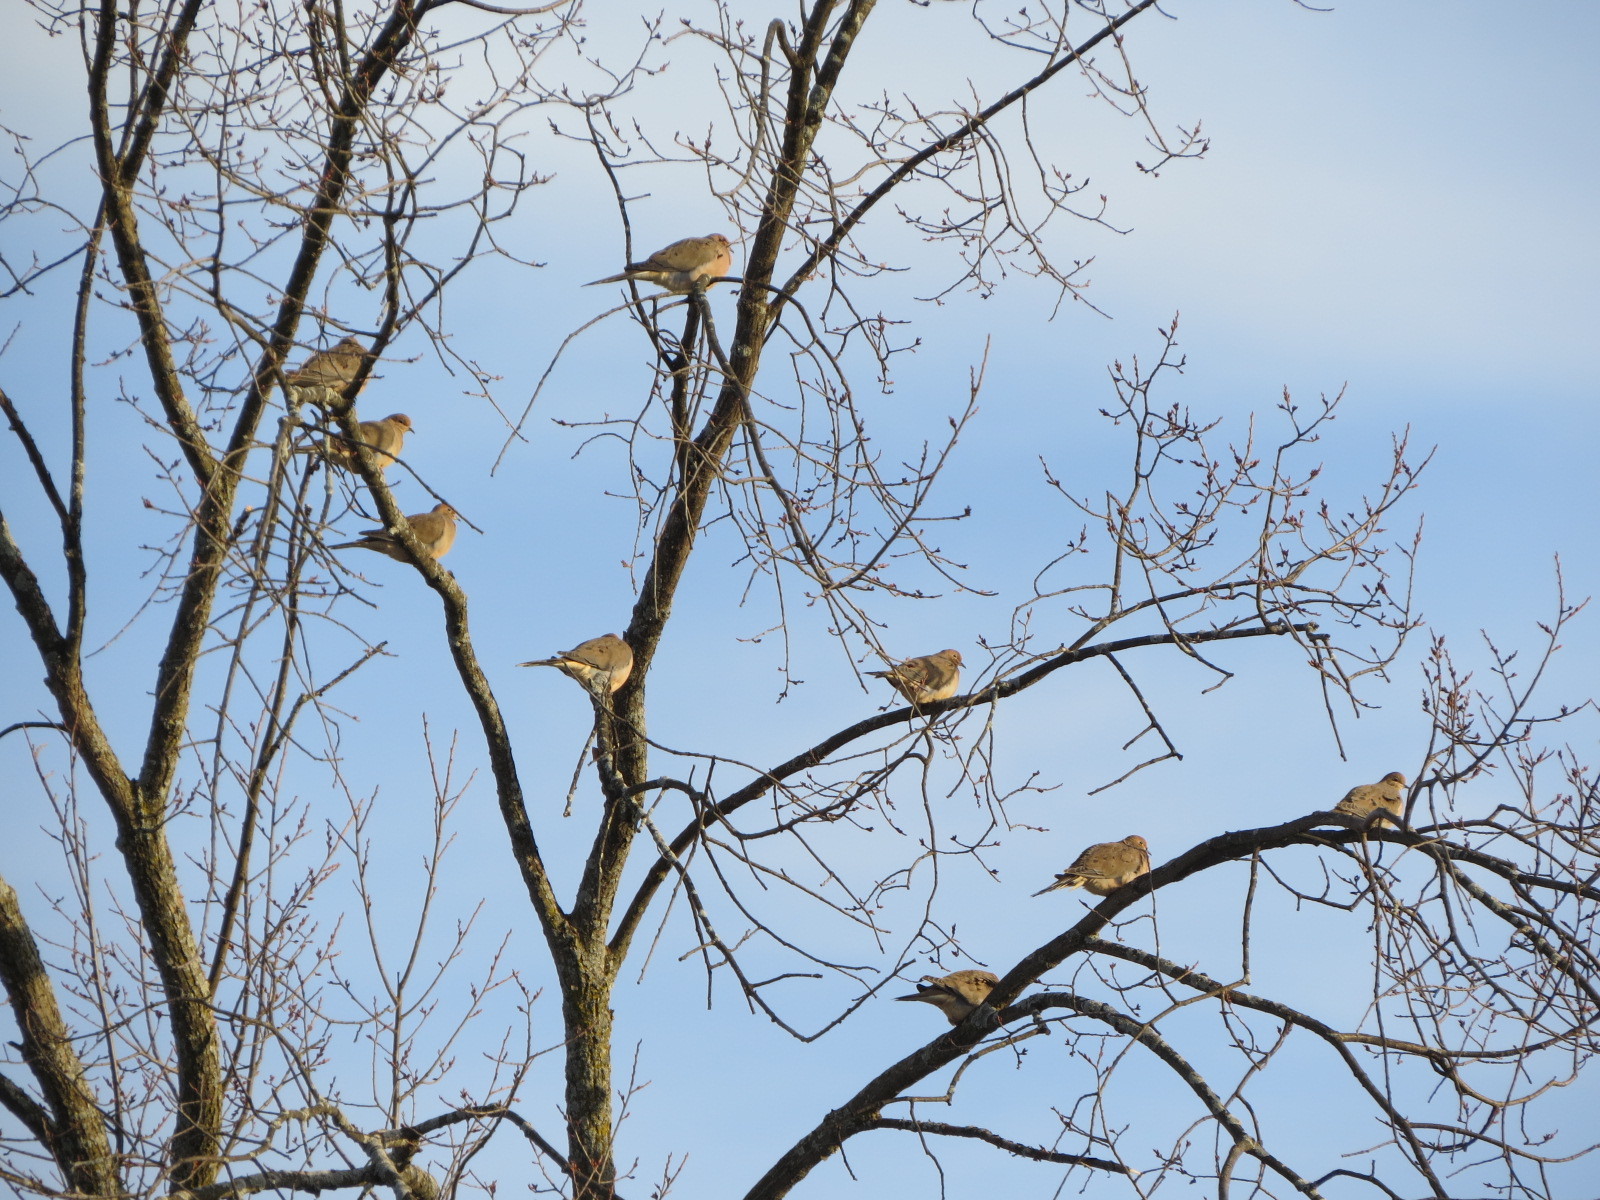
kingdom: Animalia
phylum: Chordata
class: Aves
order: Columbiformes
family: Columbidae
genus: Zenaida
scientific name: Zenaida macroura
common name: Mourning dove
